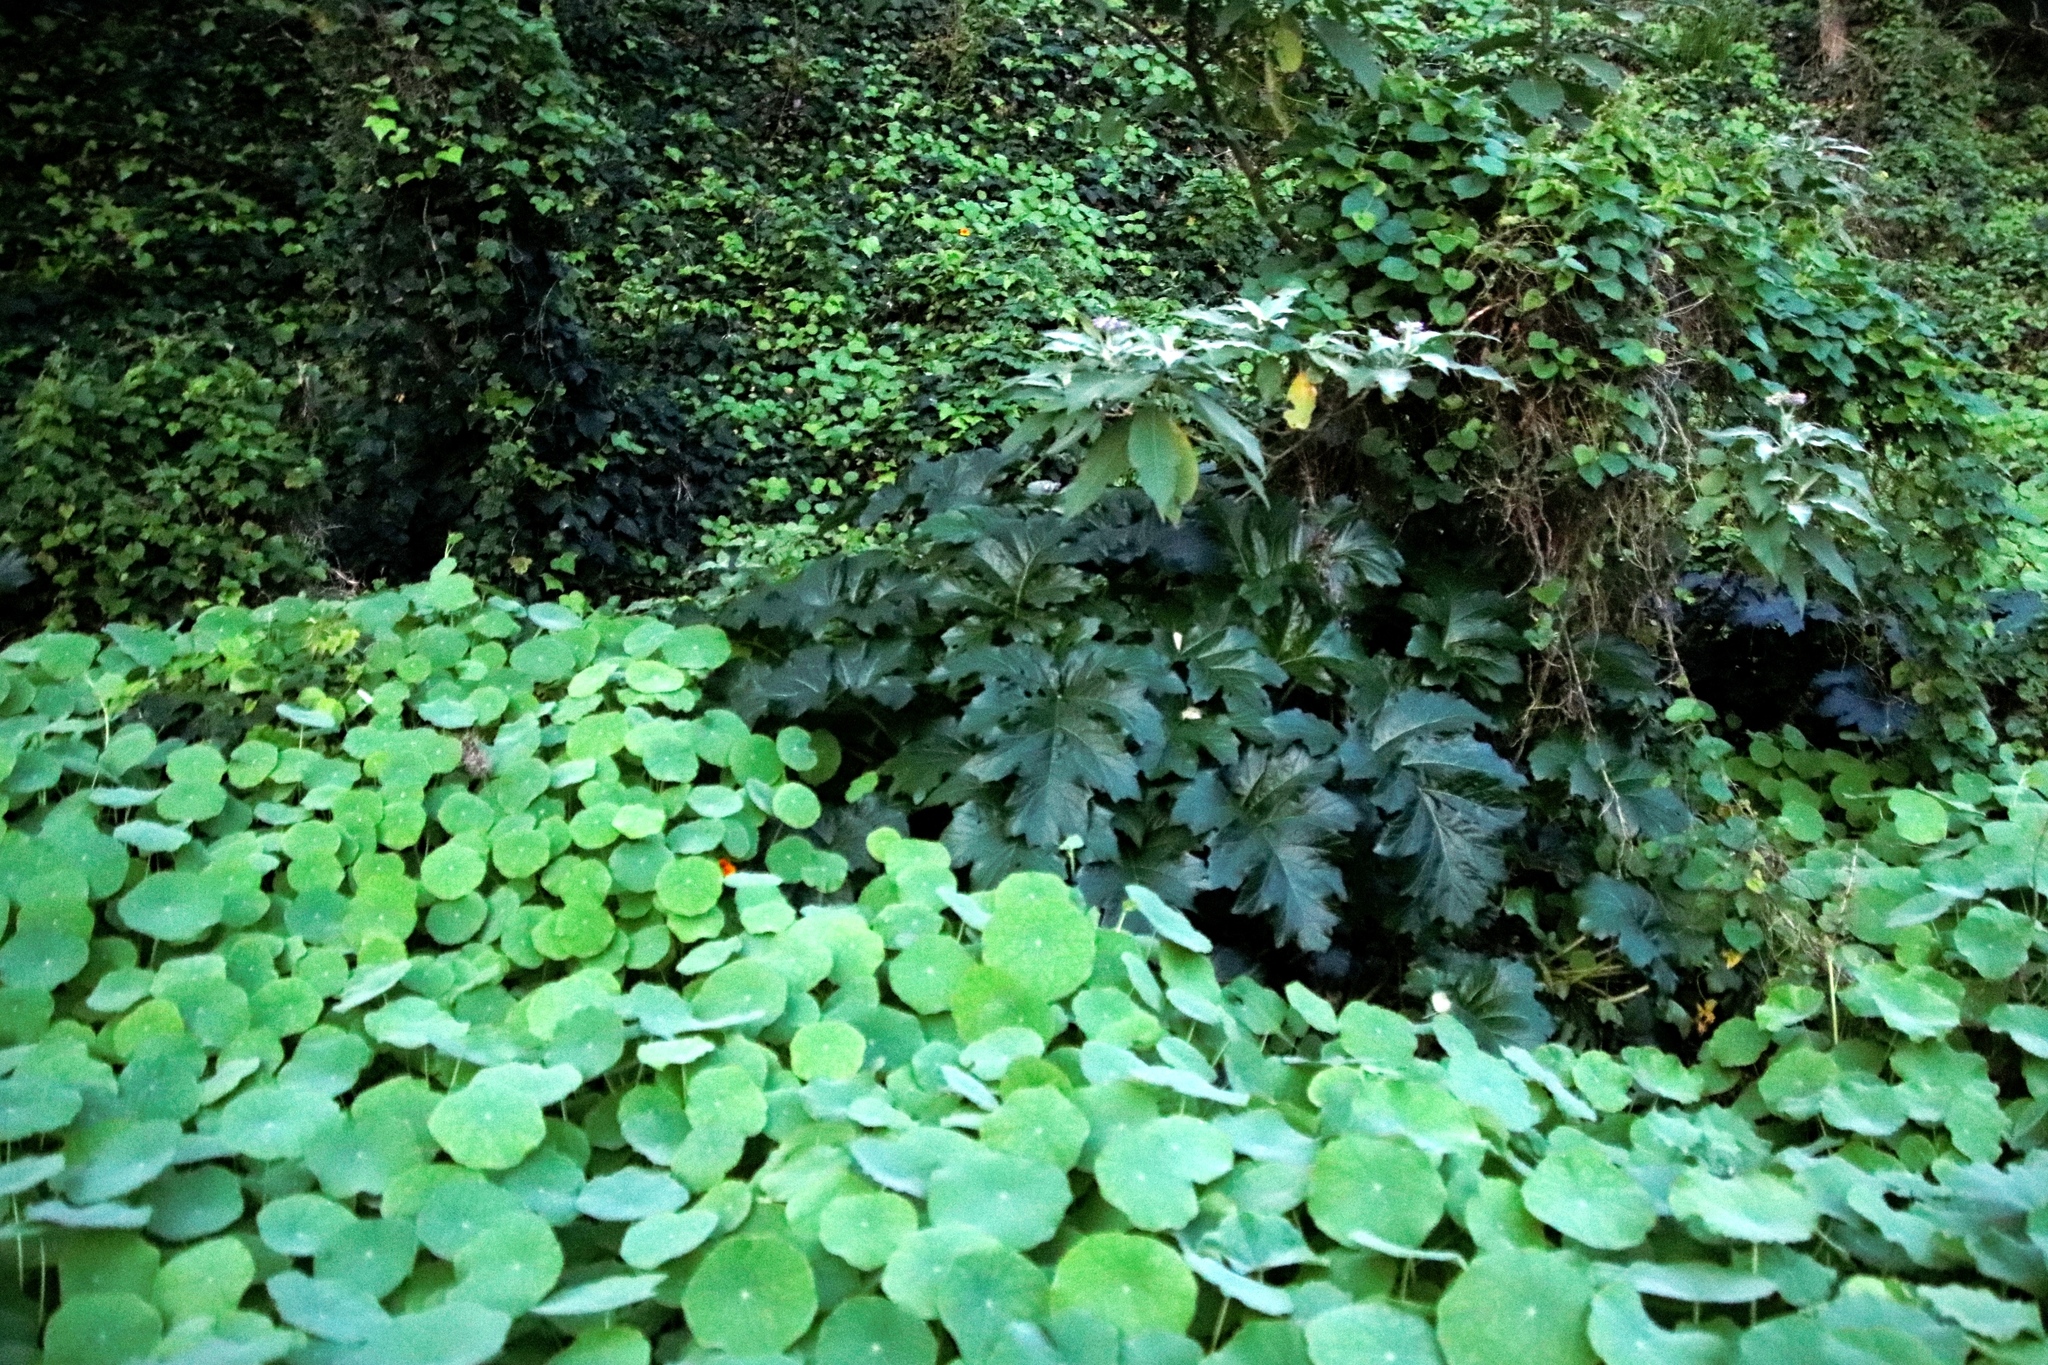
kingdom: Plantae
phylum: Tracheophyta
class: Magnoliopsida
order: Brassicales
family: Tropaeolaceae
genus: Tropaeolum
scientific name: Tropaeolum majus
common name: Nasturtium
